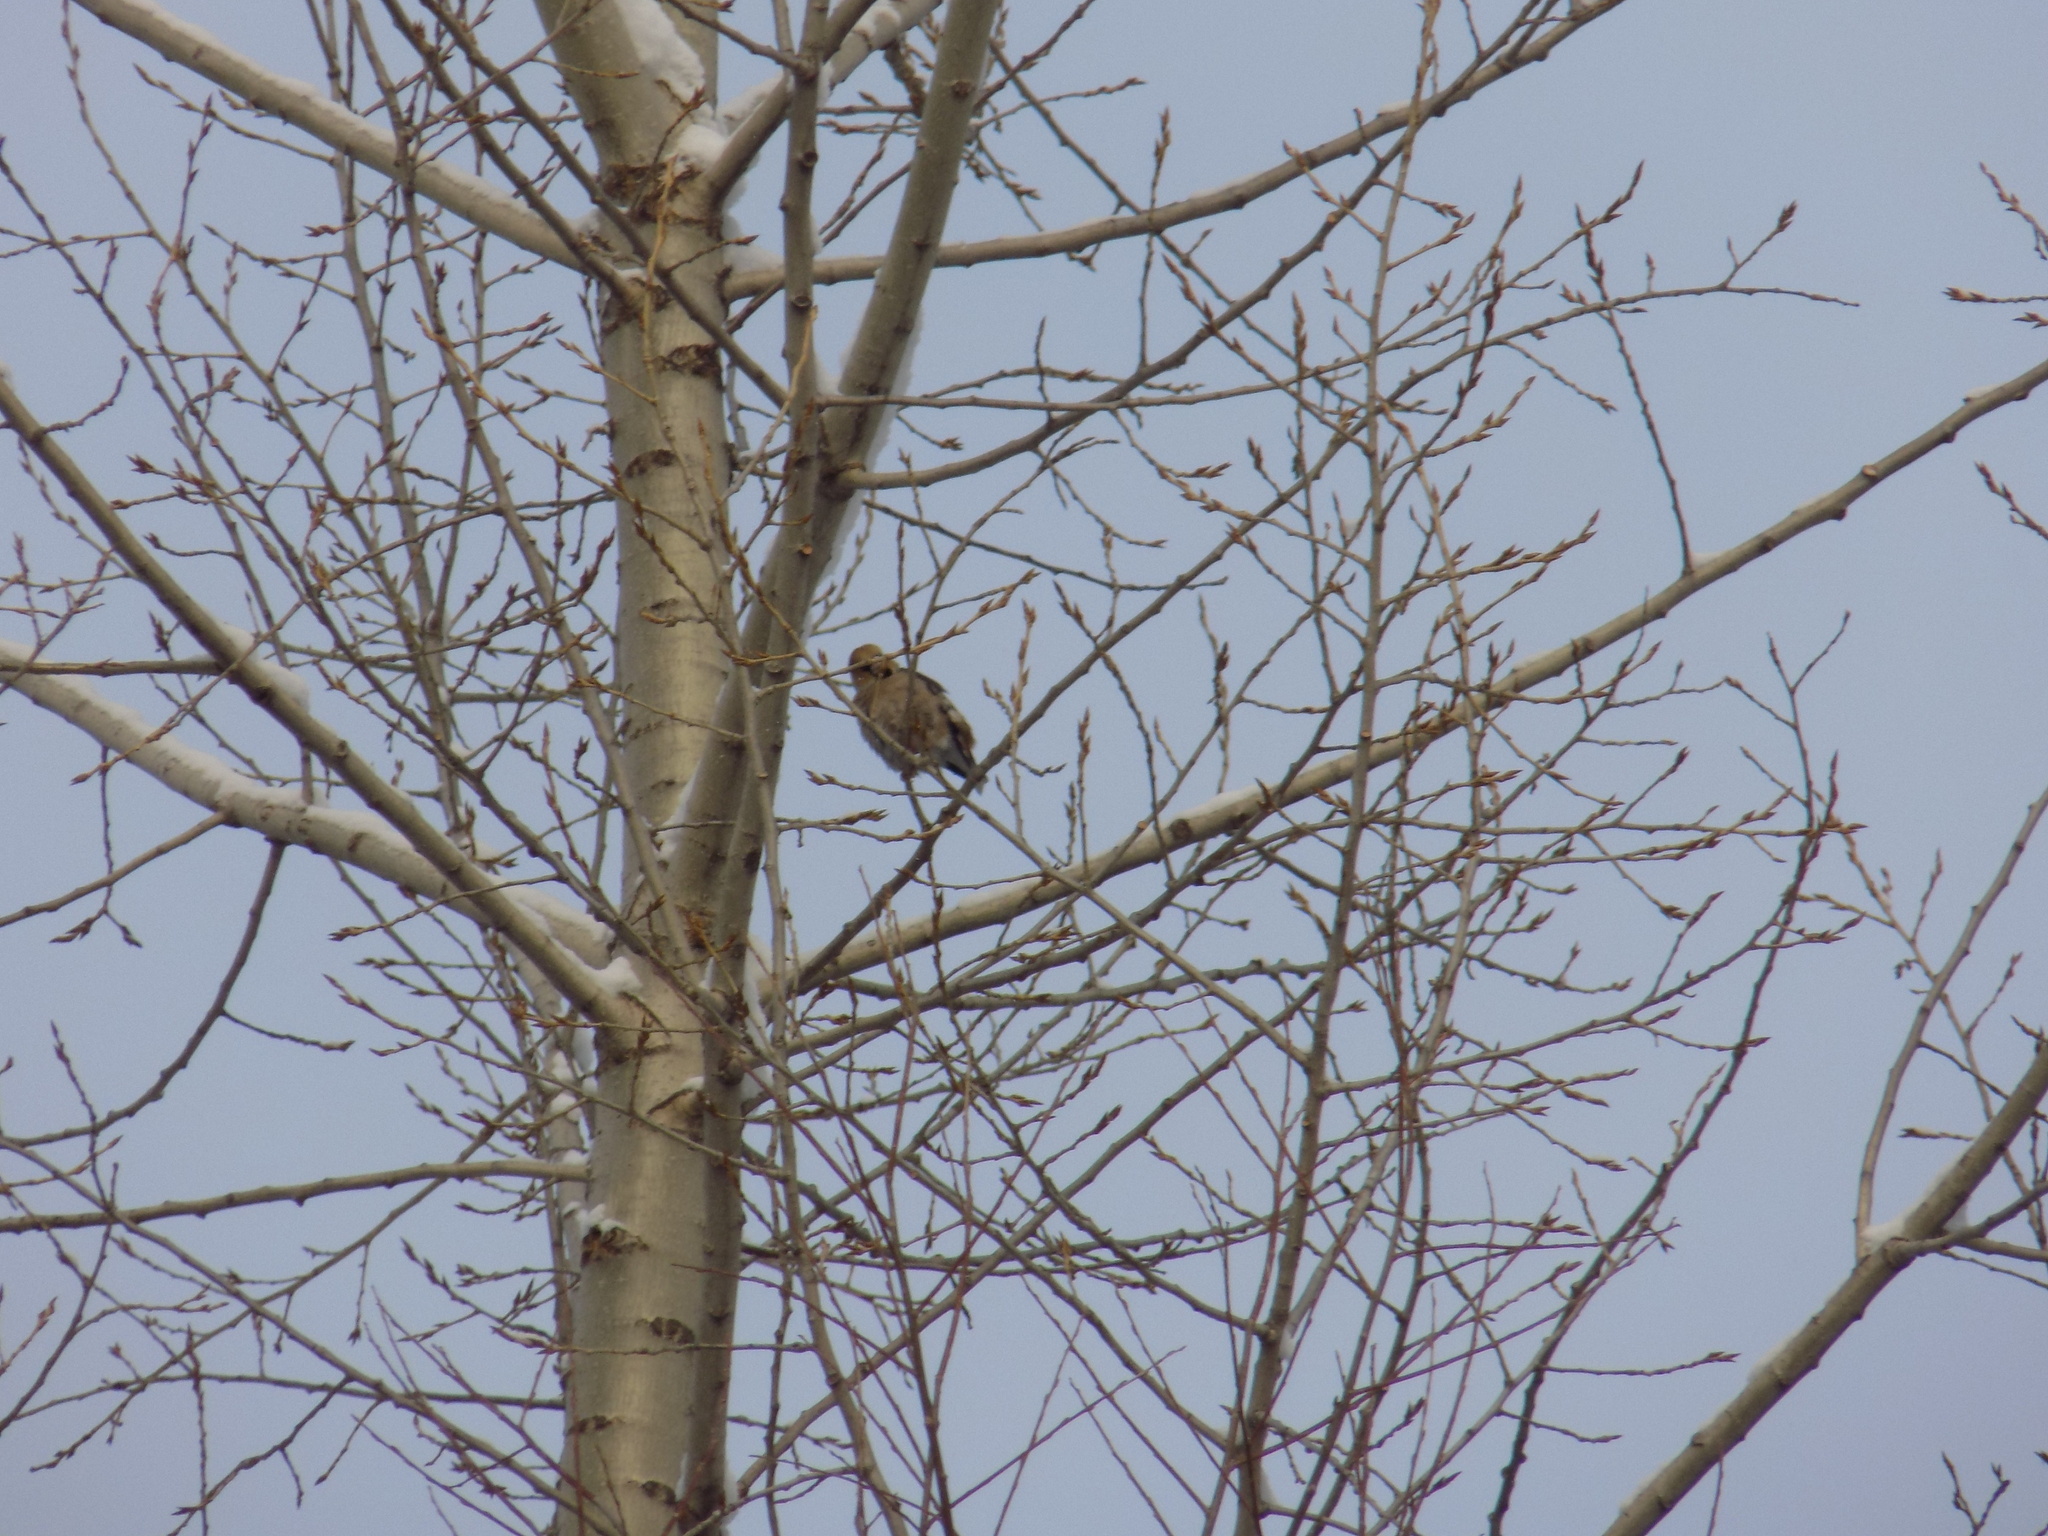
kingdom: Animalia
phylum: Chordata
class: Aves
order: Passeriformes
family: Fringillidae
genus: Coccothraustes
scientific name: Coccothraustes coccothraustes
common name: Hawfinch
